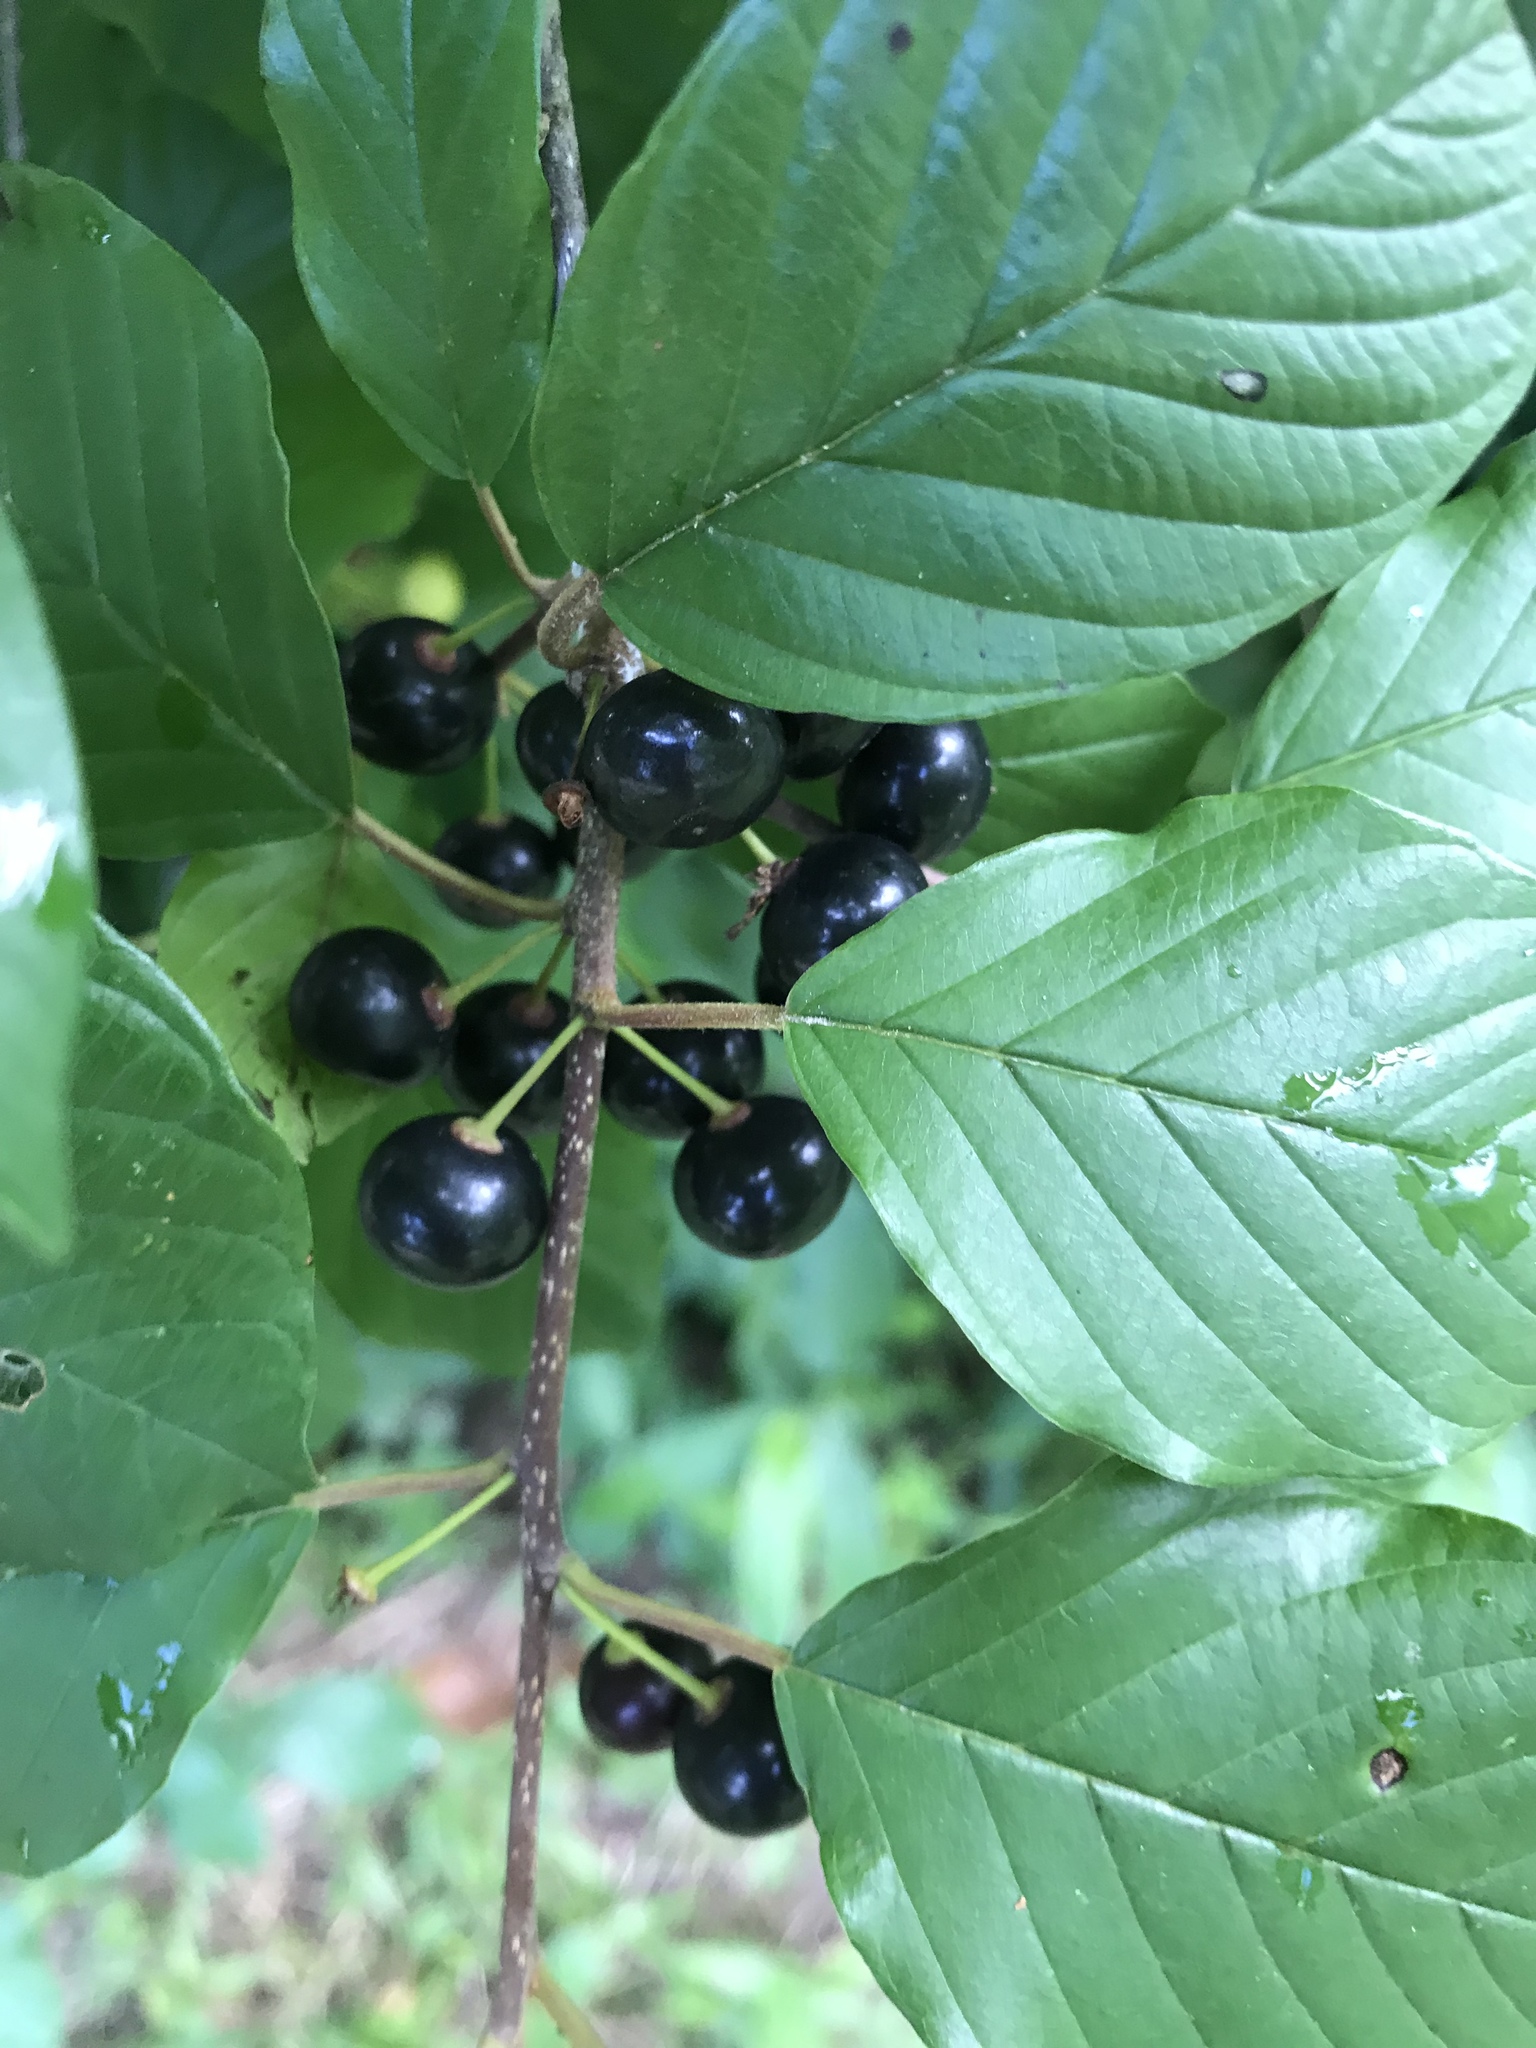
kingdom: Plantae
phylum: Tracheophyta
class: Magnoliopsida
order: Rosales
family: Rhamnaceae
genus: Frangula
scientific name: Frangula alnus
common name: Alder buckthorn
